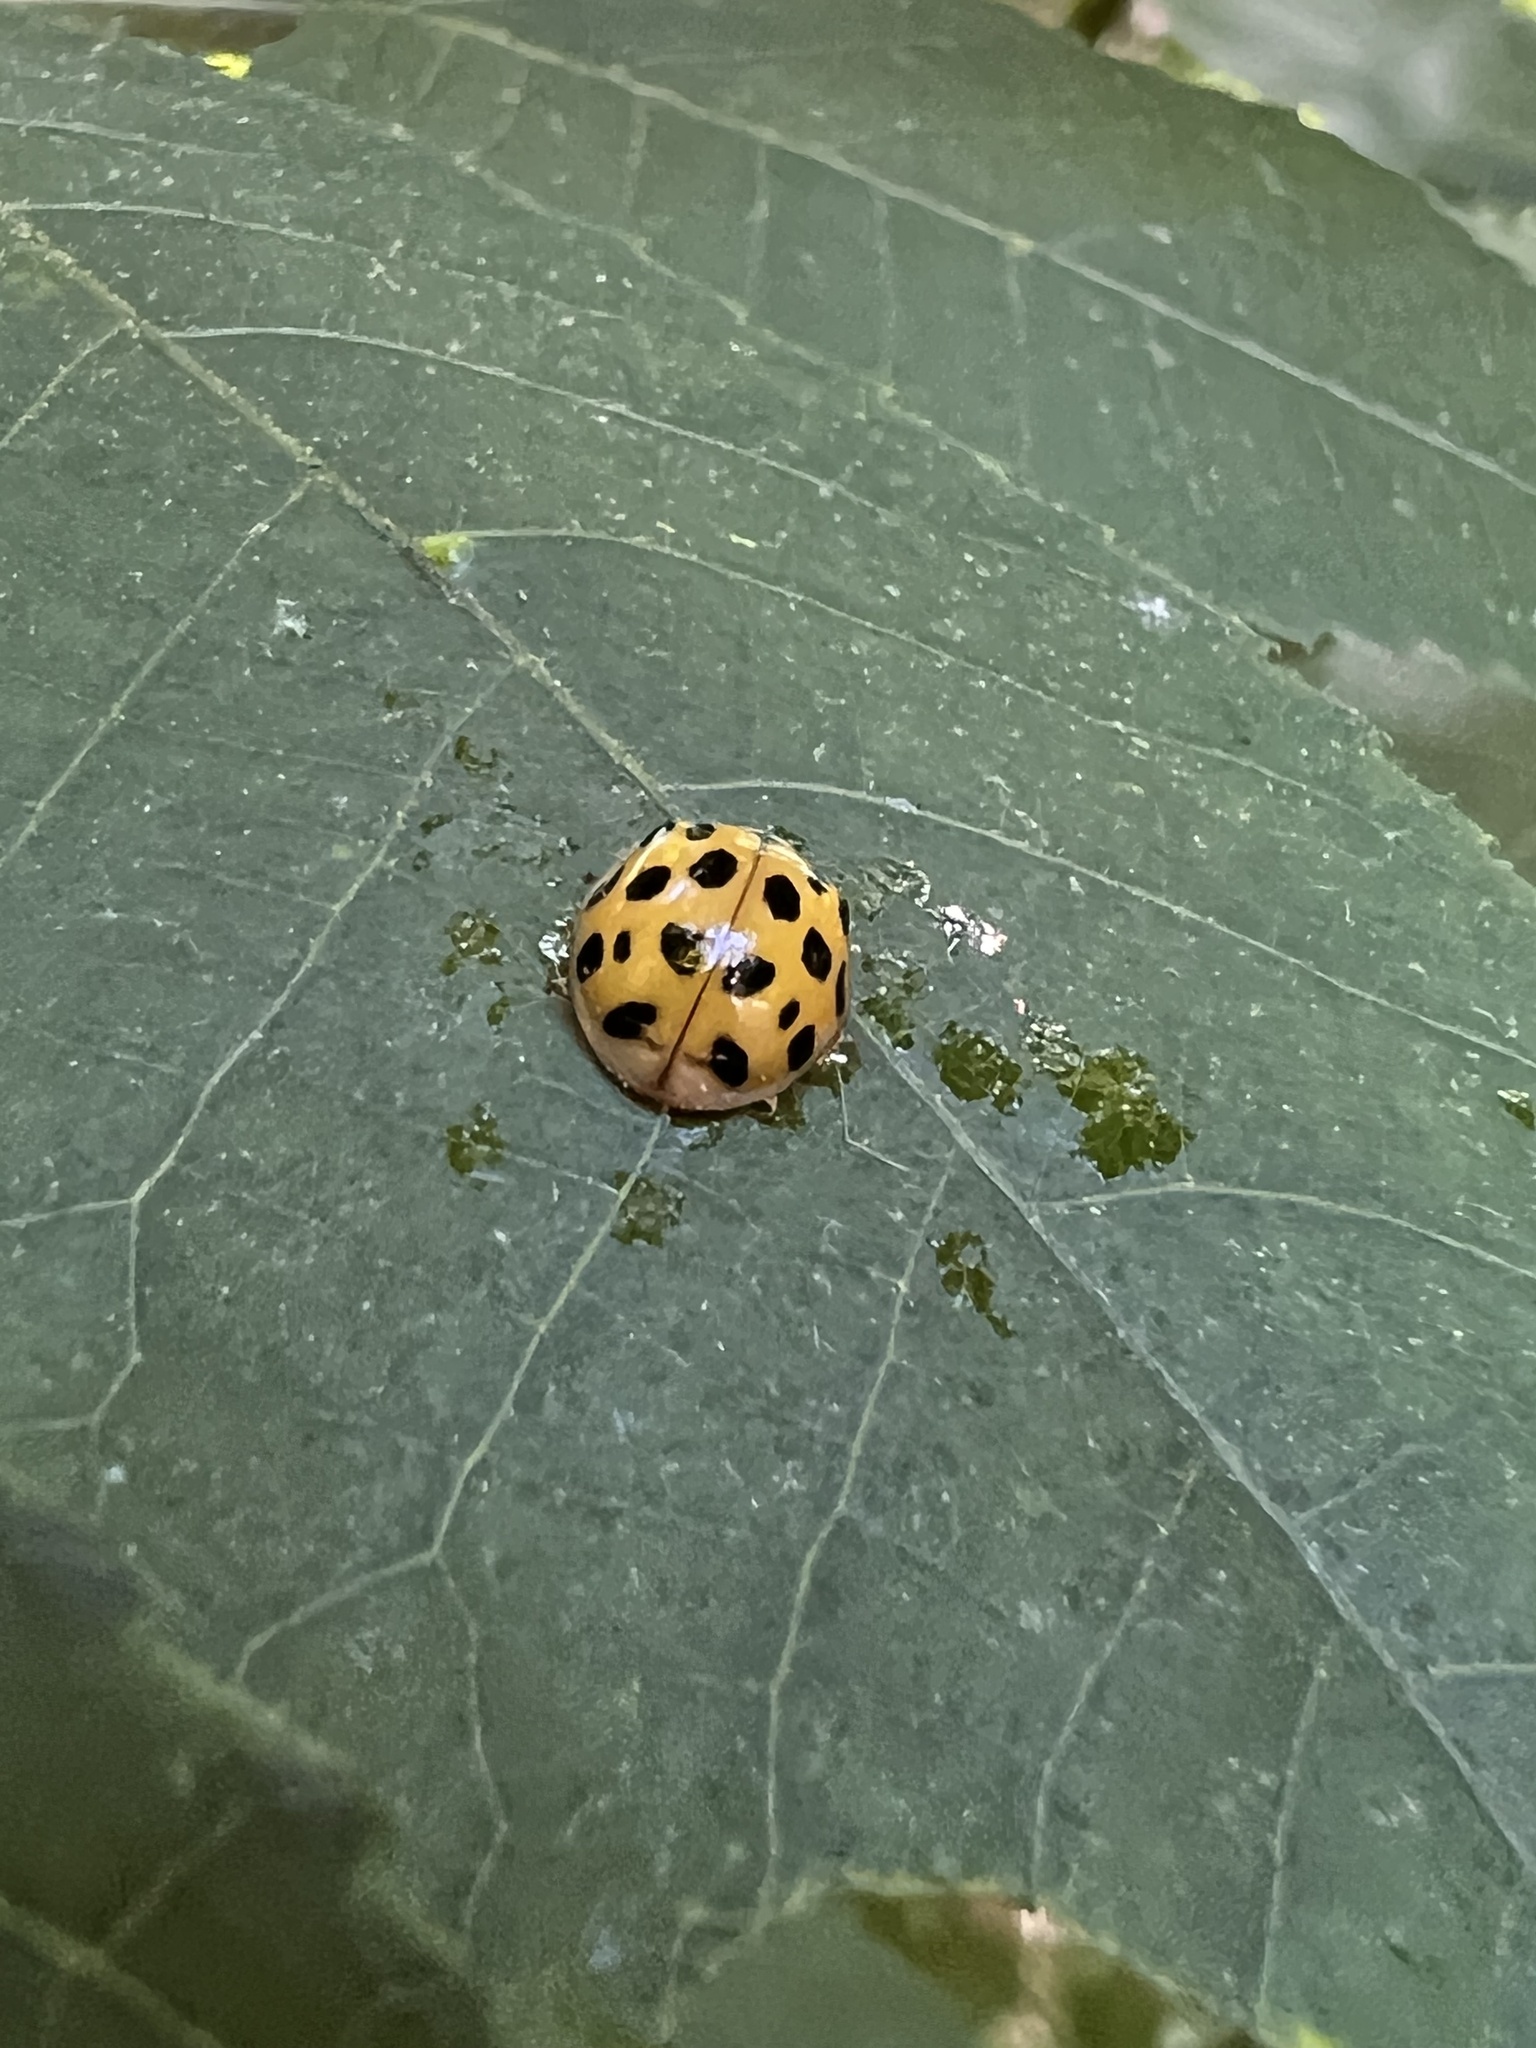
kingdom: Animalia
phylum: Arthropoda
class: Insecta
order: Coleoptera
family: Coccinellidae
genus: Harmonia
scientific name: Harmonia axyridis
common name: Harlequin ladybird
